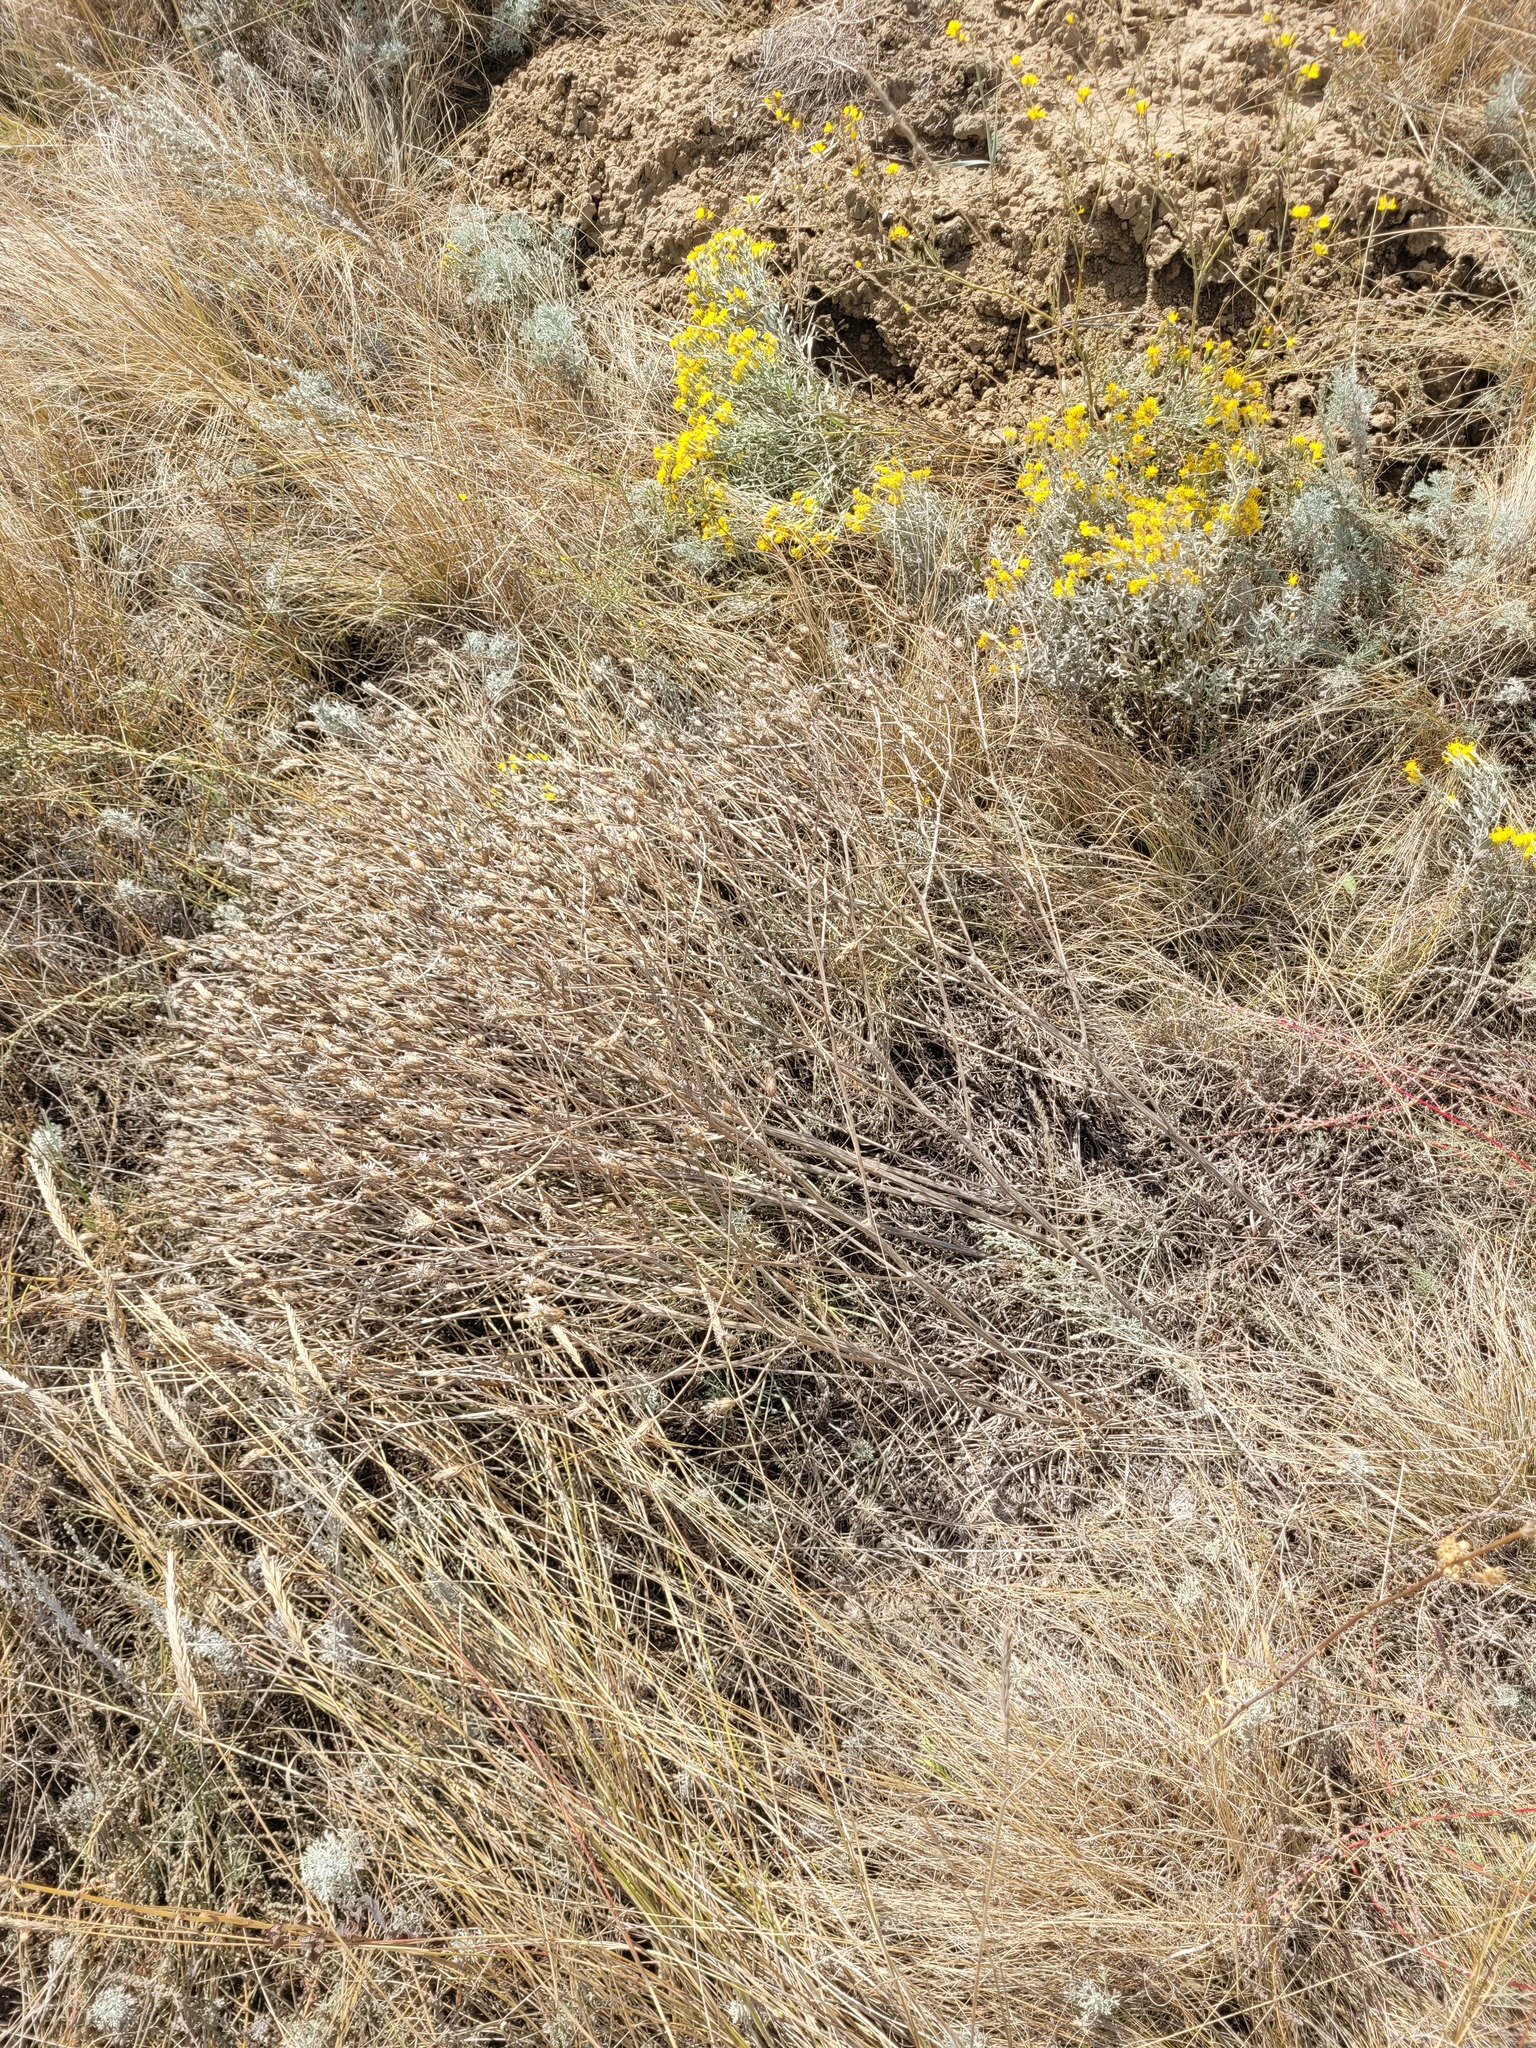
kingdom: Plantae
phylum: Tracheophyta
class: Magnoliopsida
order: Asterales
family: Asteraceae
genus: Klasea
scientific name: Klasea erucifolia
